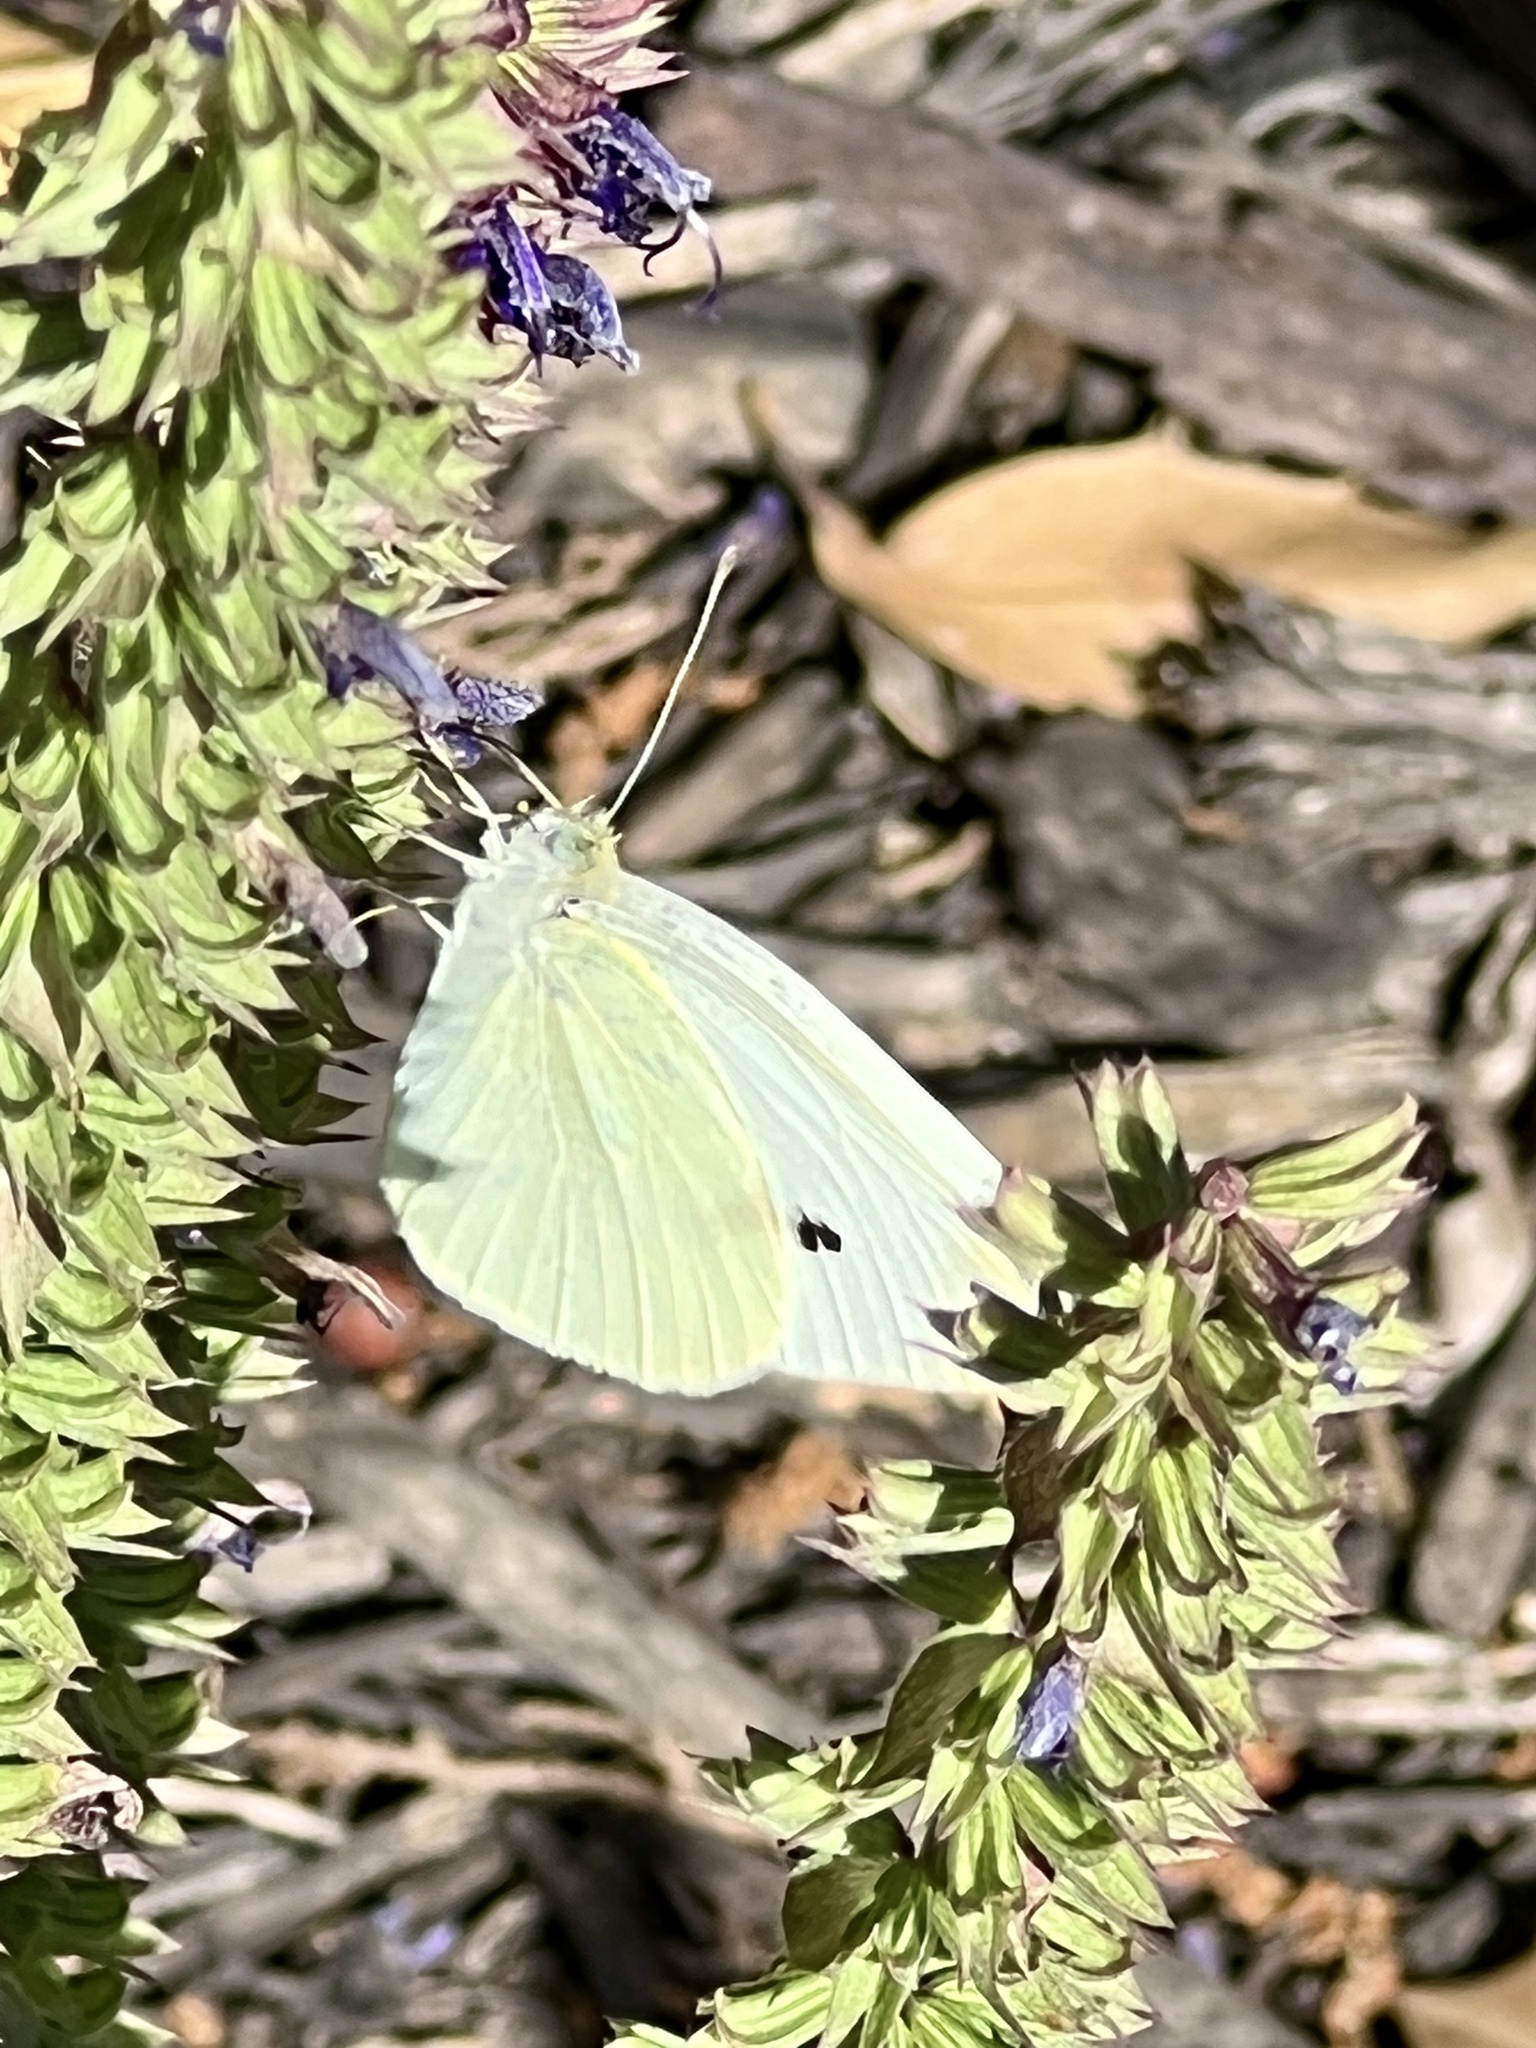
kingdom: Animalia
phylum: Arthropoda
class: Insecta
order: Lepidoptera
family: Pieridae
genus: Pieris
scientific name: Pieris rapae
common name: Small white
